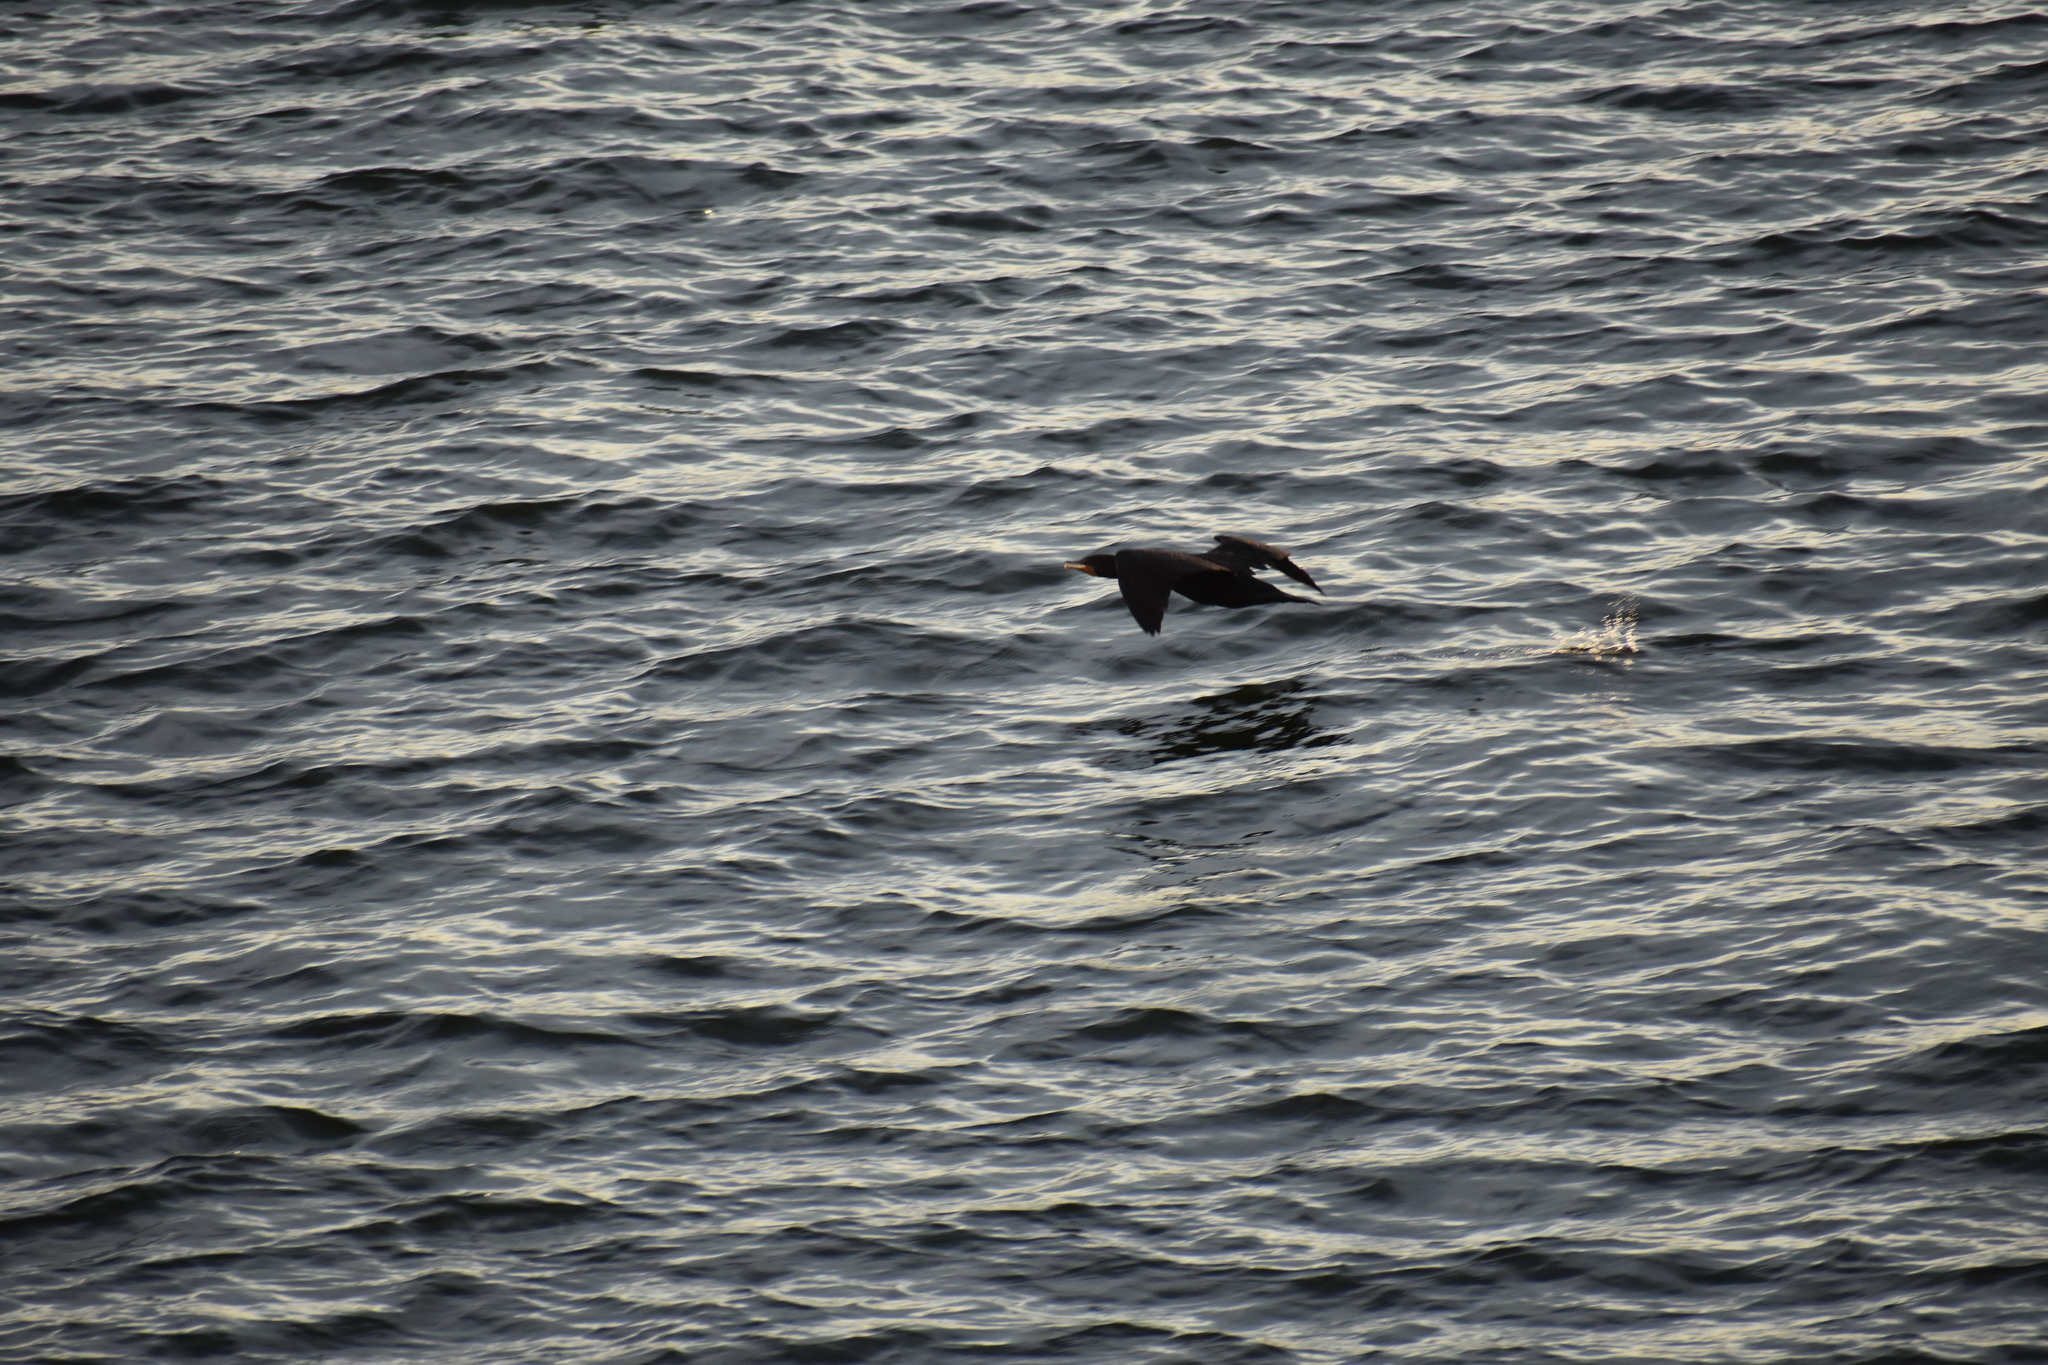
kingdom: Animalia
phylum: Chordata
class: Aves
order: Suliformes
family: Phalacrocoracidae
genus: Phalacrocorax
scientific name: Phalacrocorax auritus
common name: Double-crested cormorant
